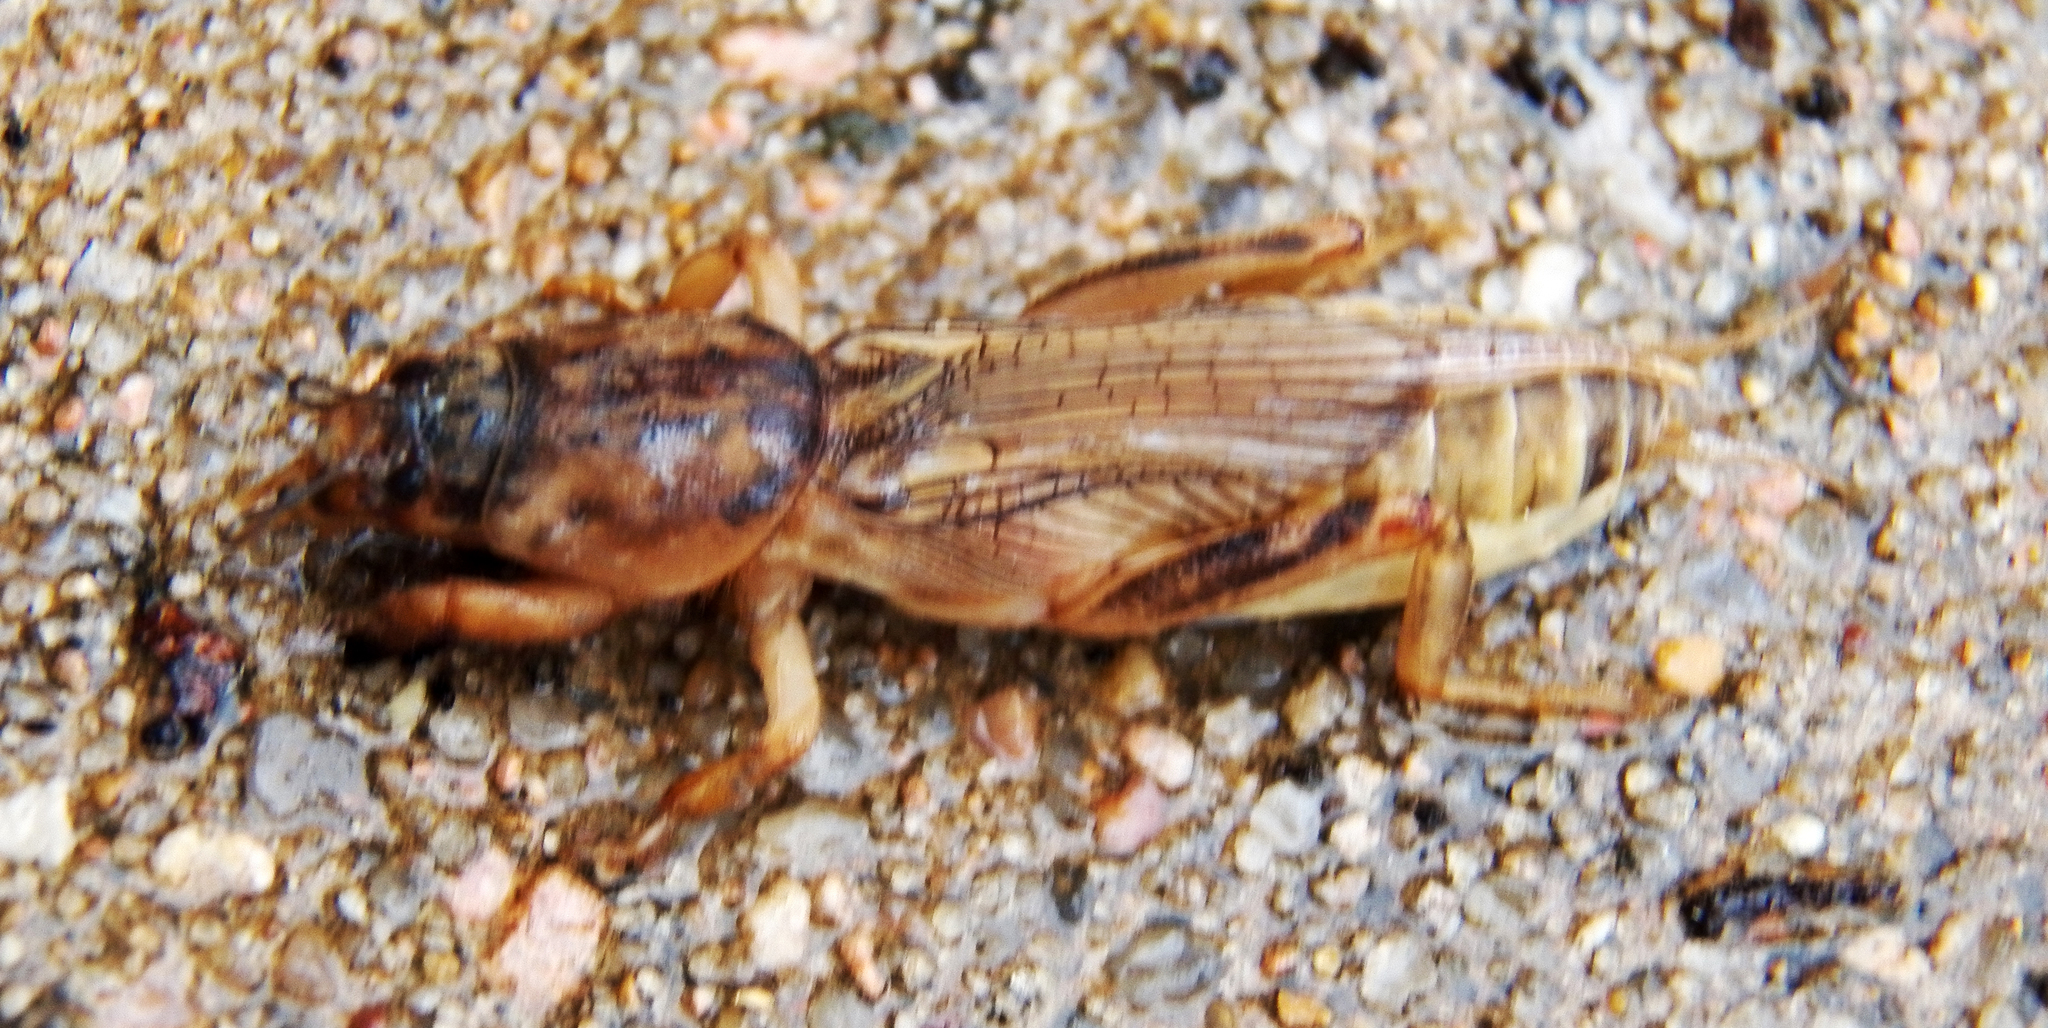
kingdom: Animalia
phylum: Arthropoda
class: Insecta
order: Orthoptera
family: Gryllotalpidae
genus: Neoscapteriscus
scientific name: Neoscapteriscus vicinus
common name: Tawny mole cricket
